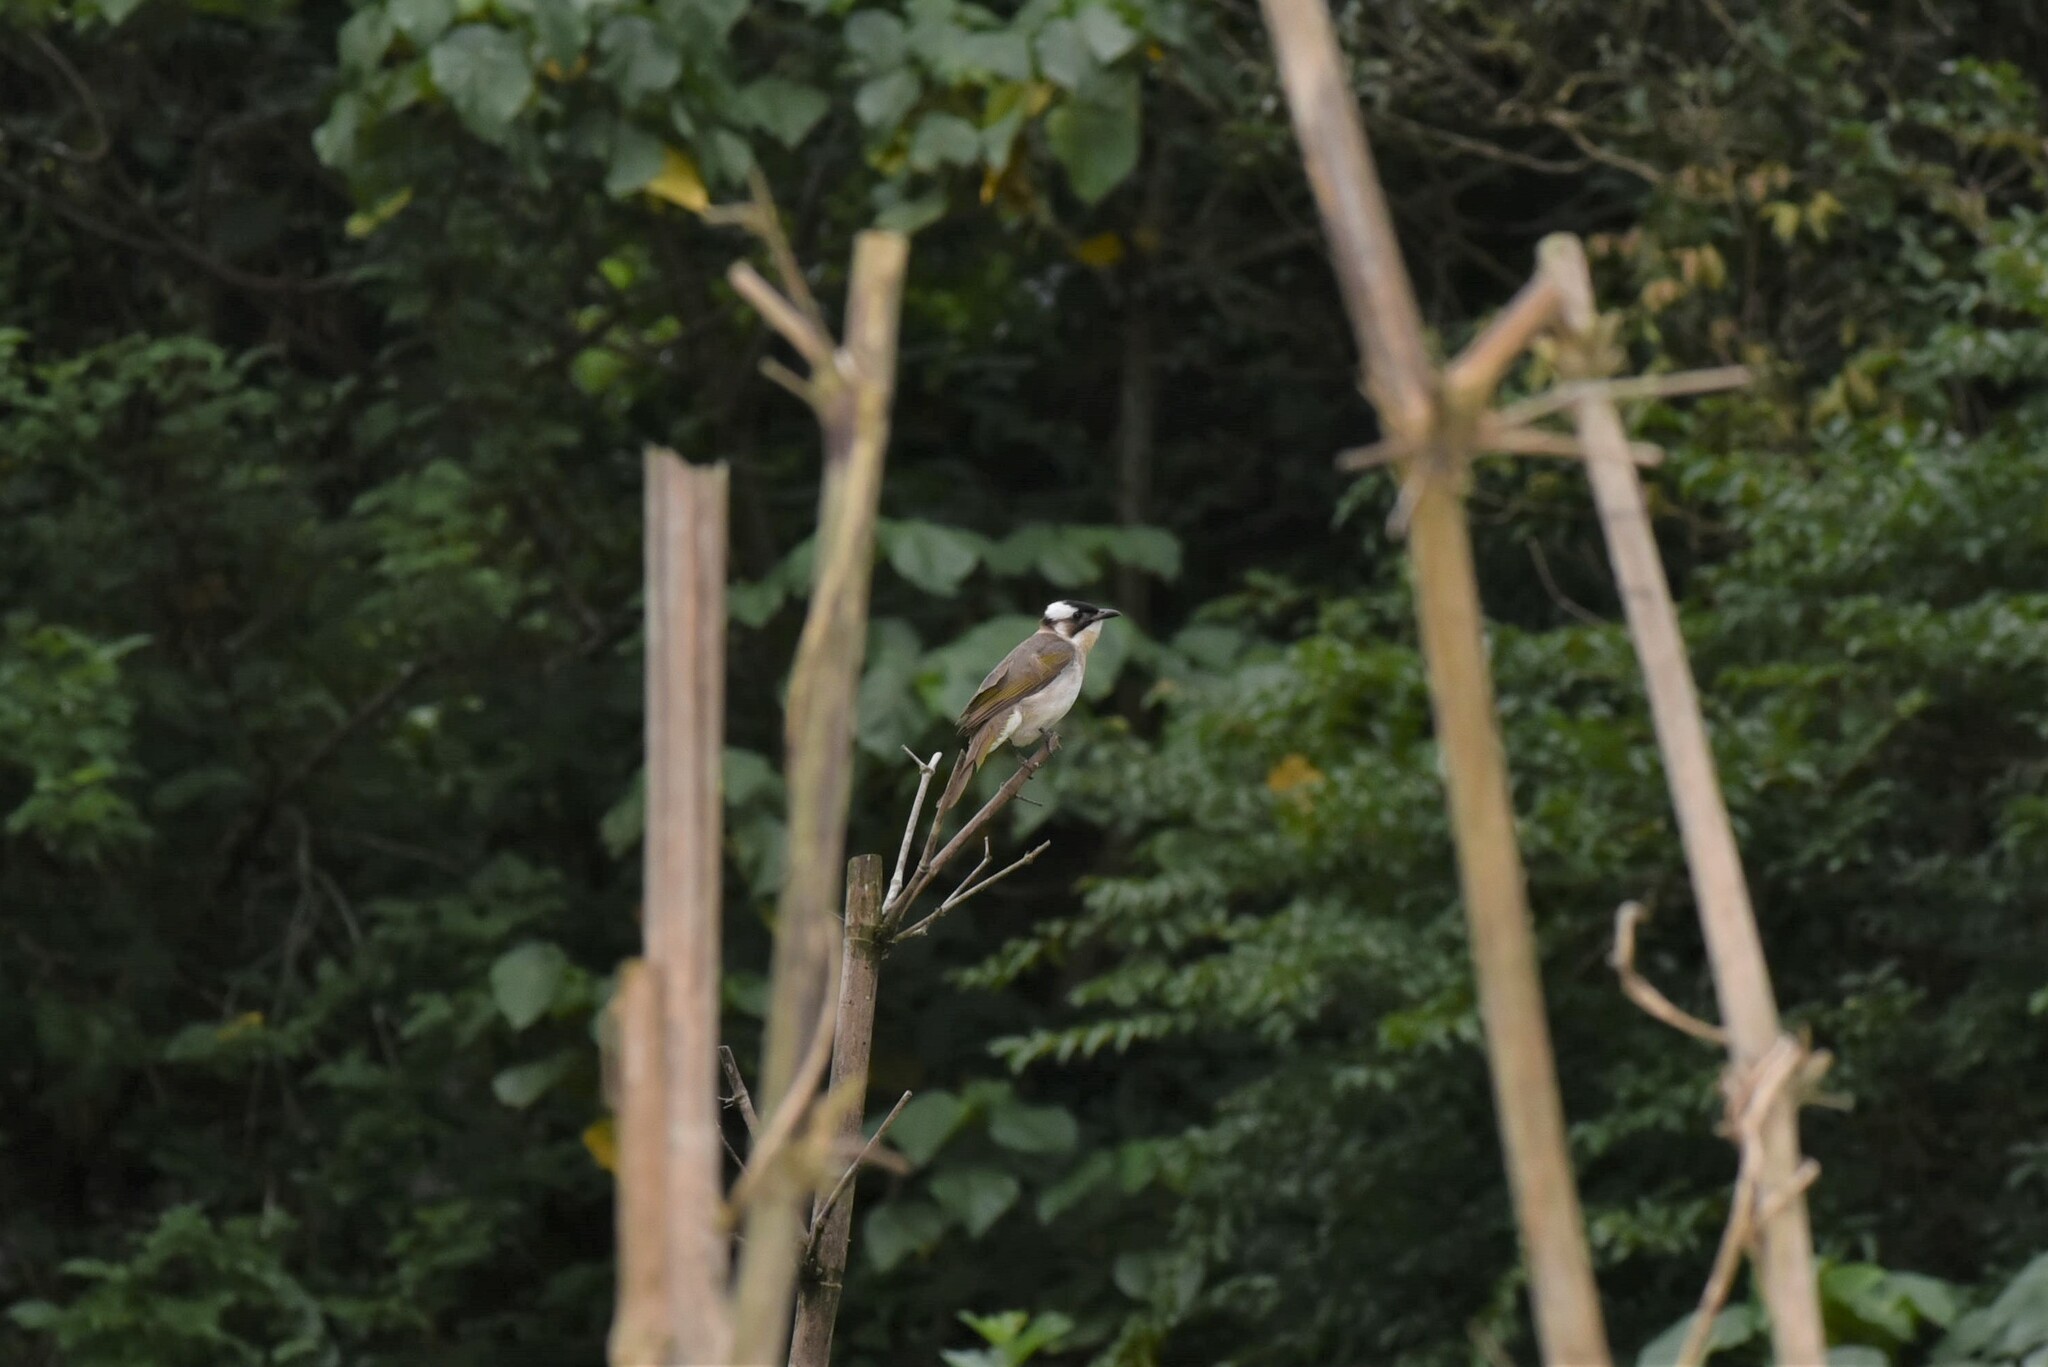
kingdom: Animalia
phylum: Chordata
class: Aves
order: Passeriformes
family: Pycnonotidae
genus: Pycnonotus
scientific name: Pycnonotus sinensis
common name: Light-vented bulbul
